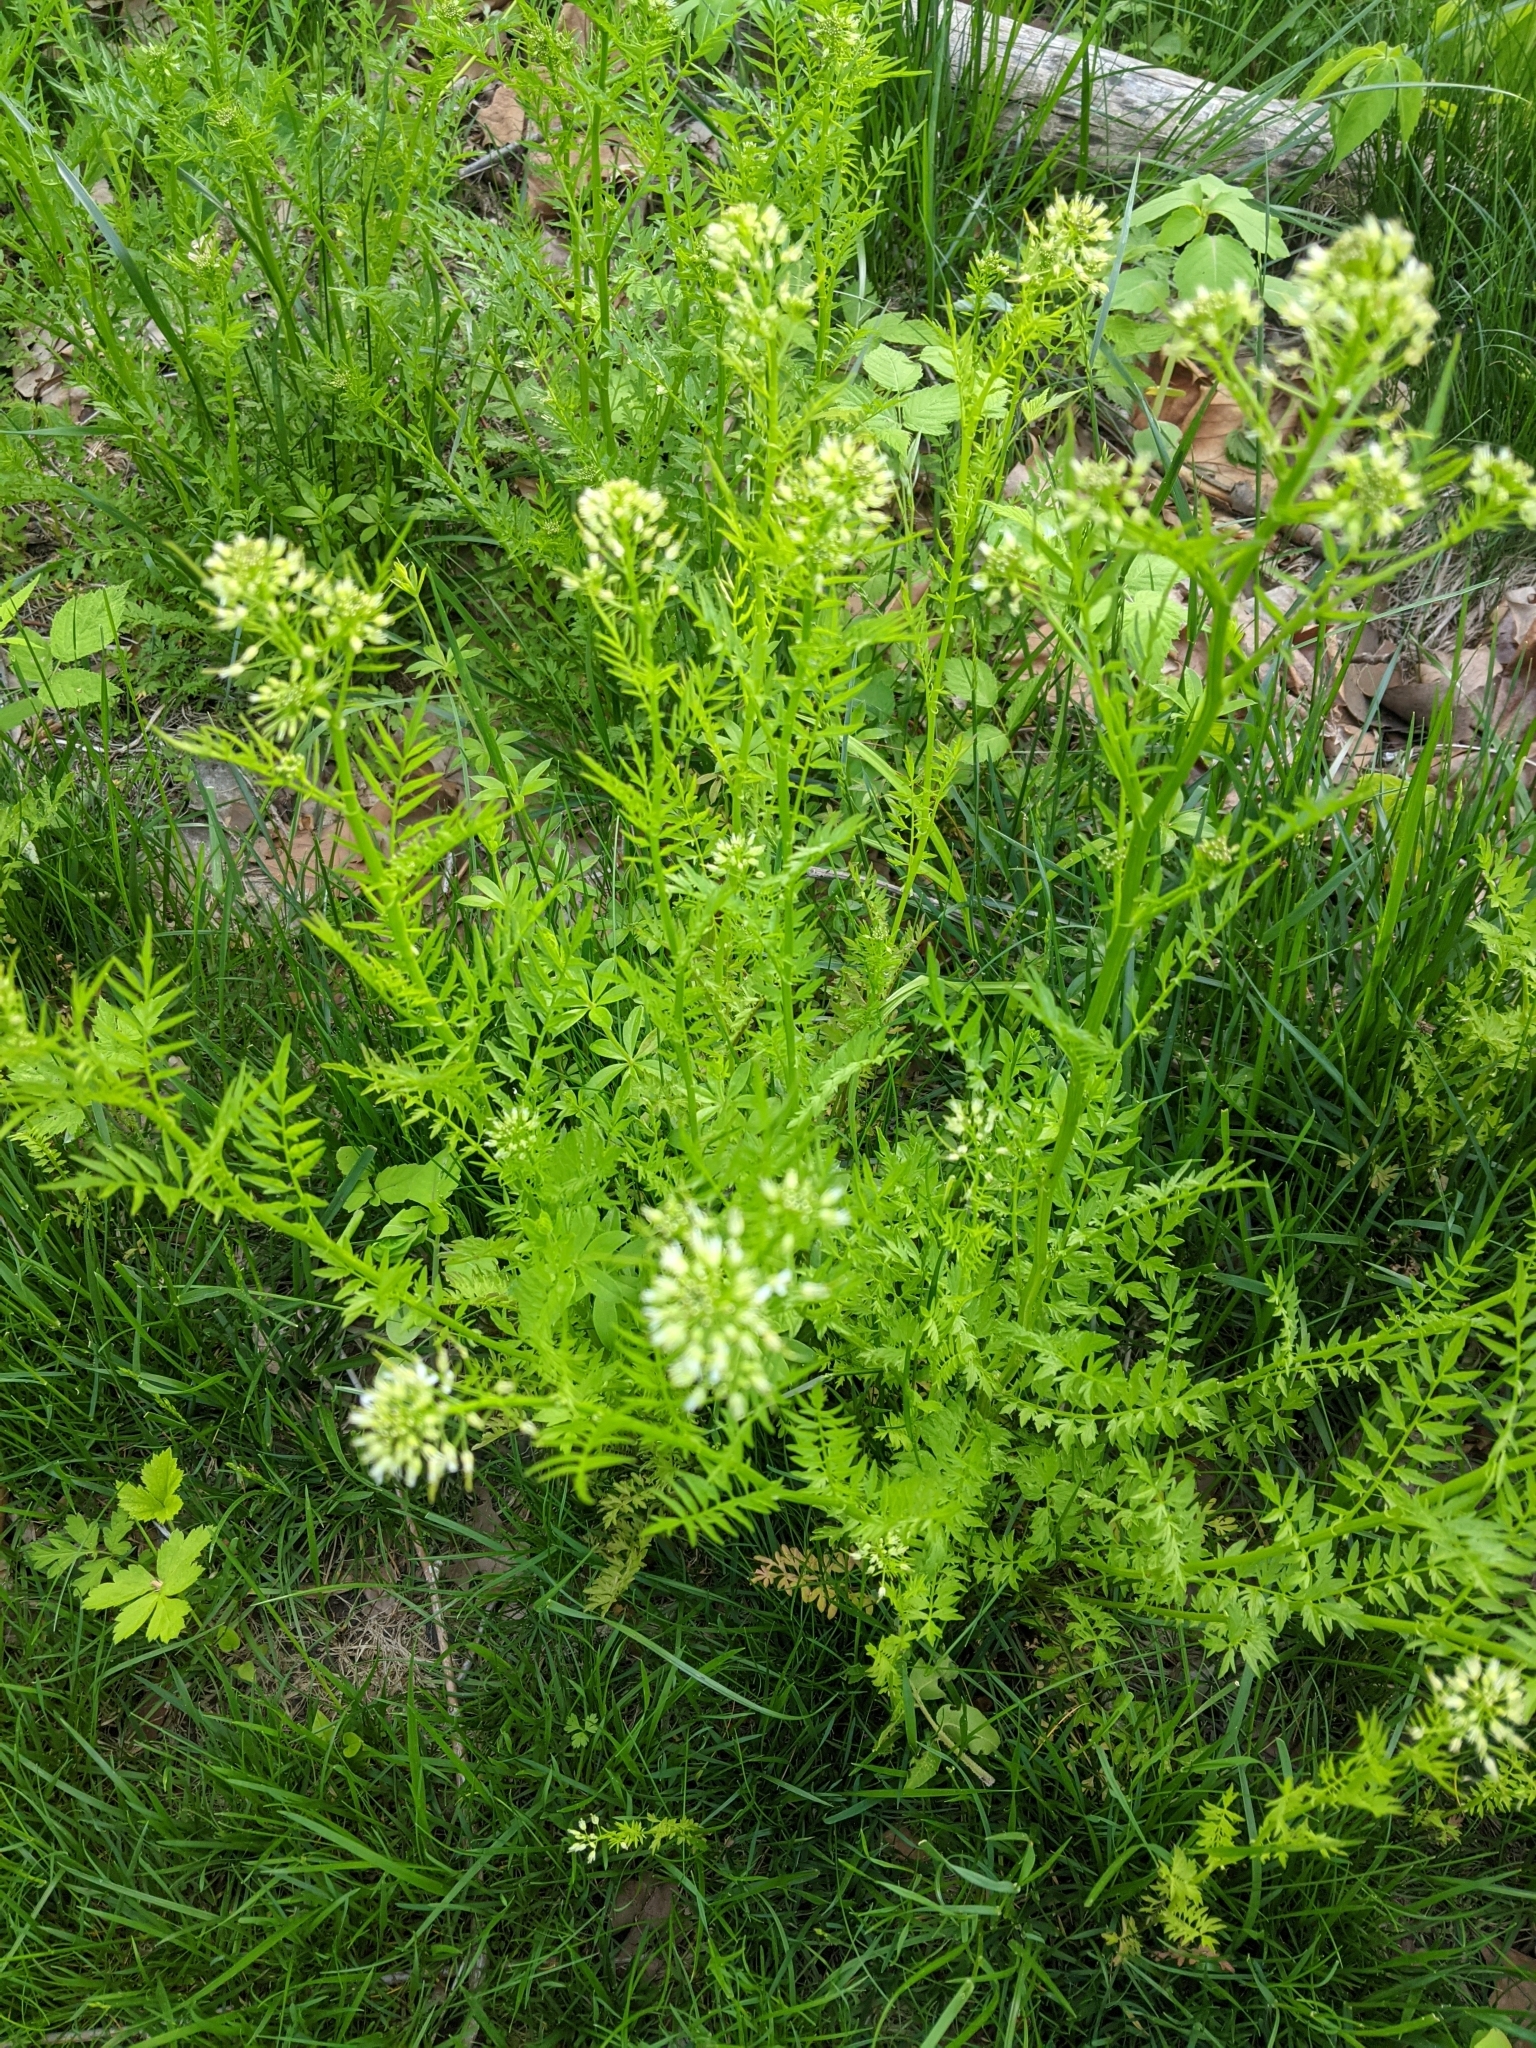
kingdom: Plantae
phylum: Tracheophyta
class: Magnoliopsida
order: Brassicales
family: Brassicaceae
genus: Cardamine
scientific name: Cardamine impatiens
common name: Narrow-leaved bitter-cress
